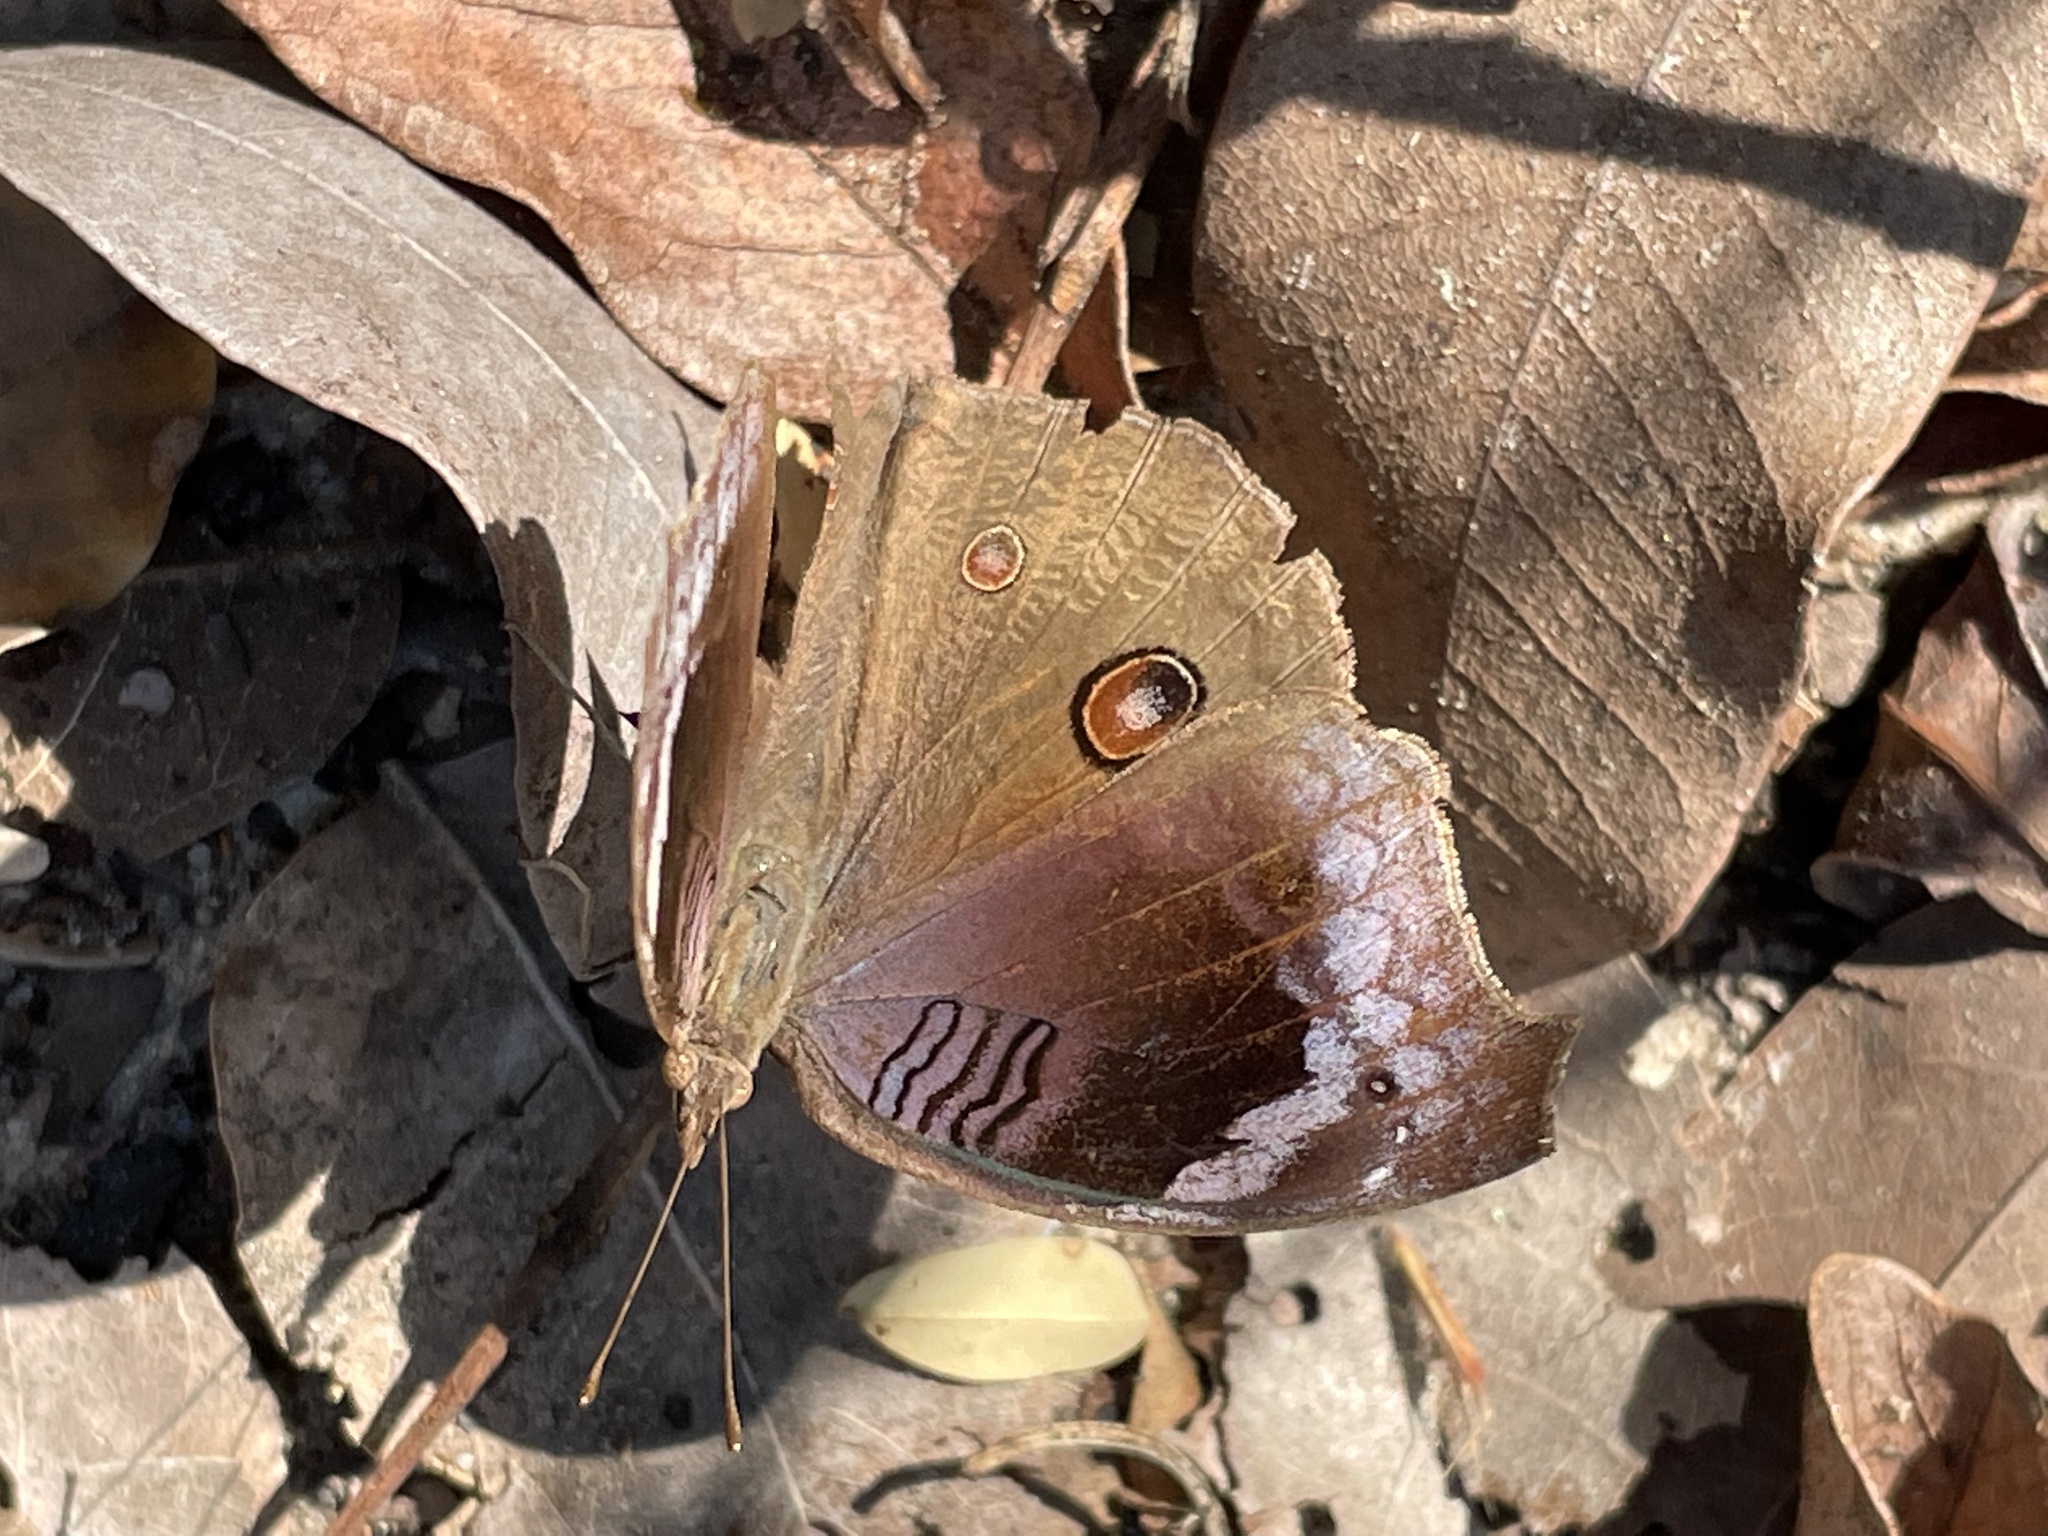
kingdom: Animalia
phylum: Arthropoda
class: Insecta
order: Lepidoptera
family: Nymphalidae
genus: Junonia
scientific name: Junonia artaxia
